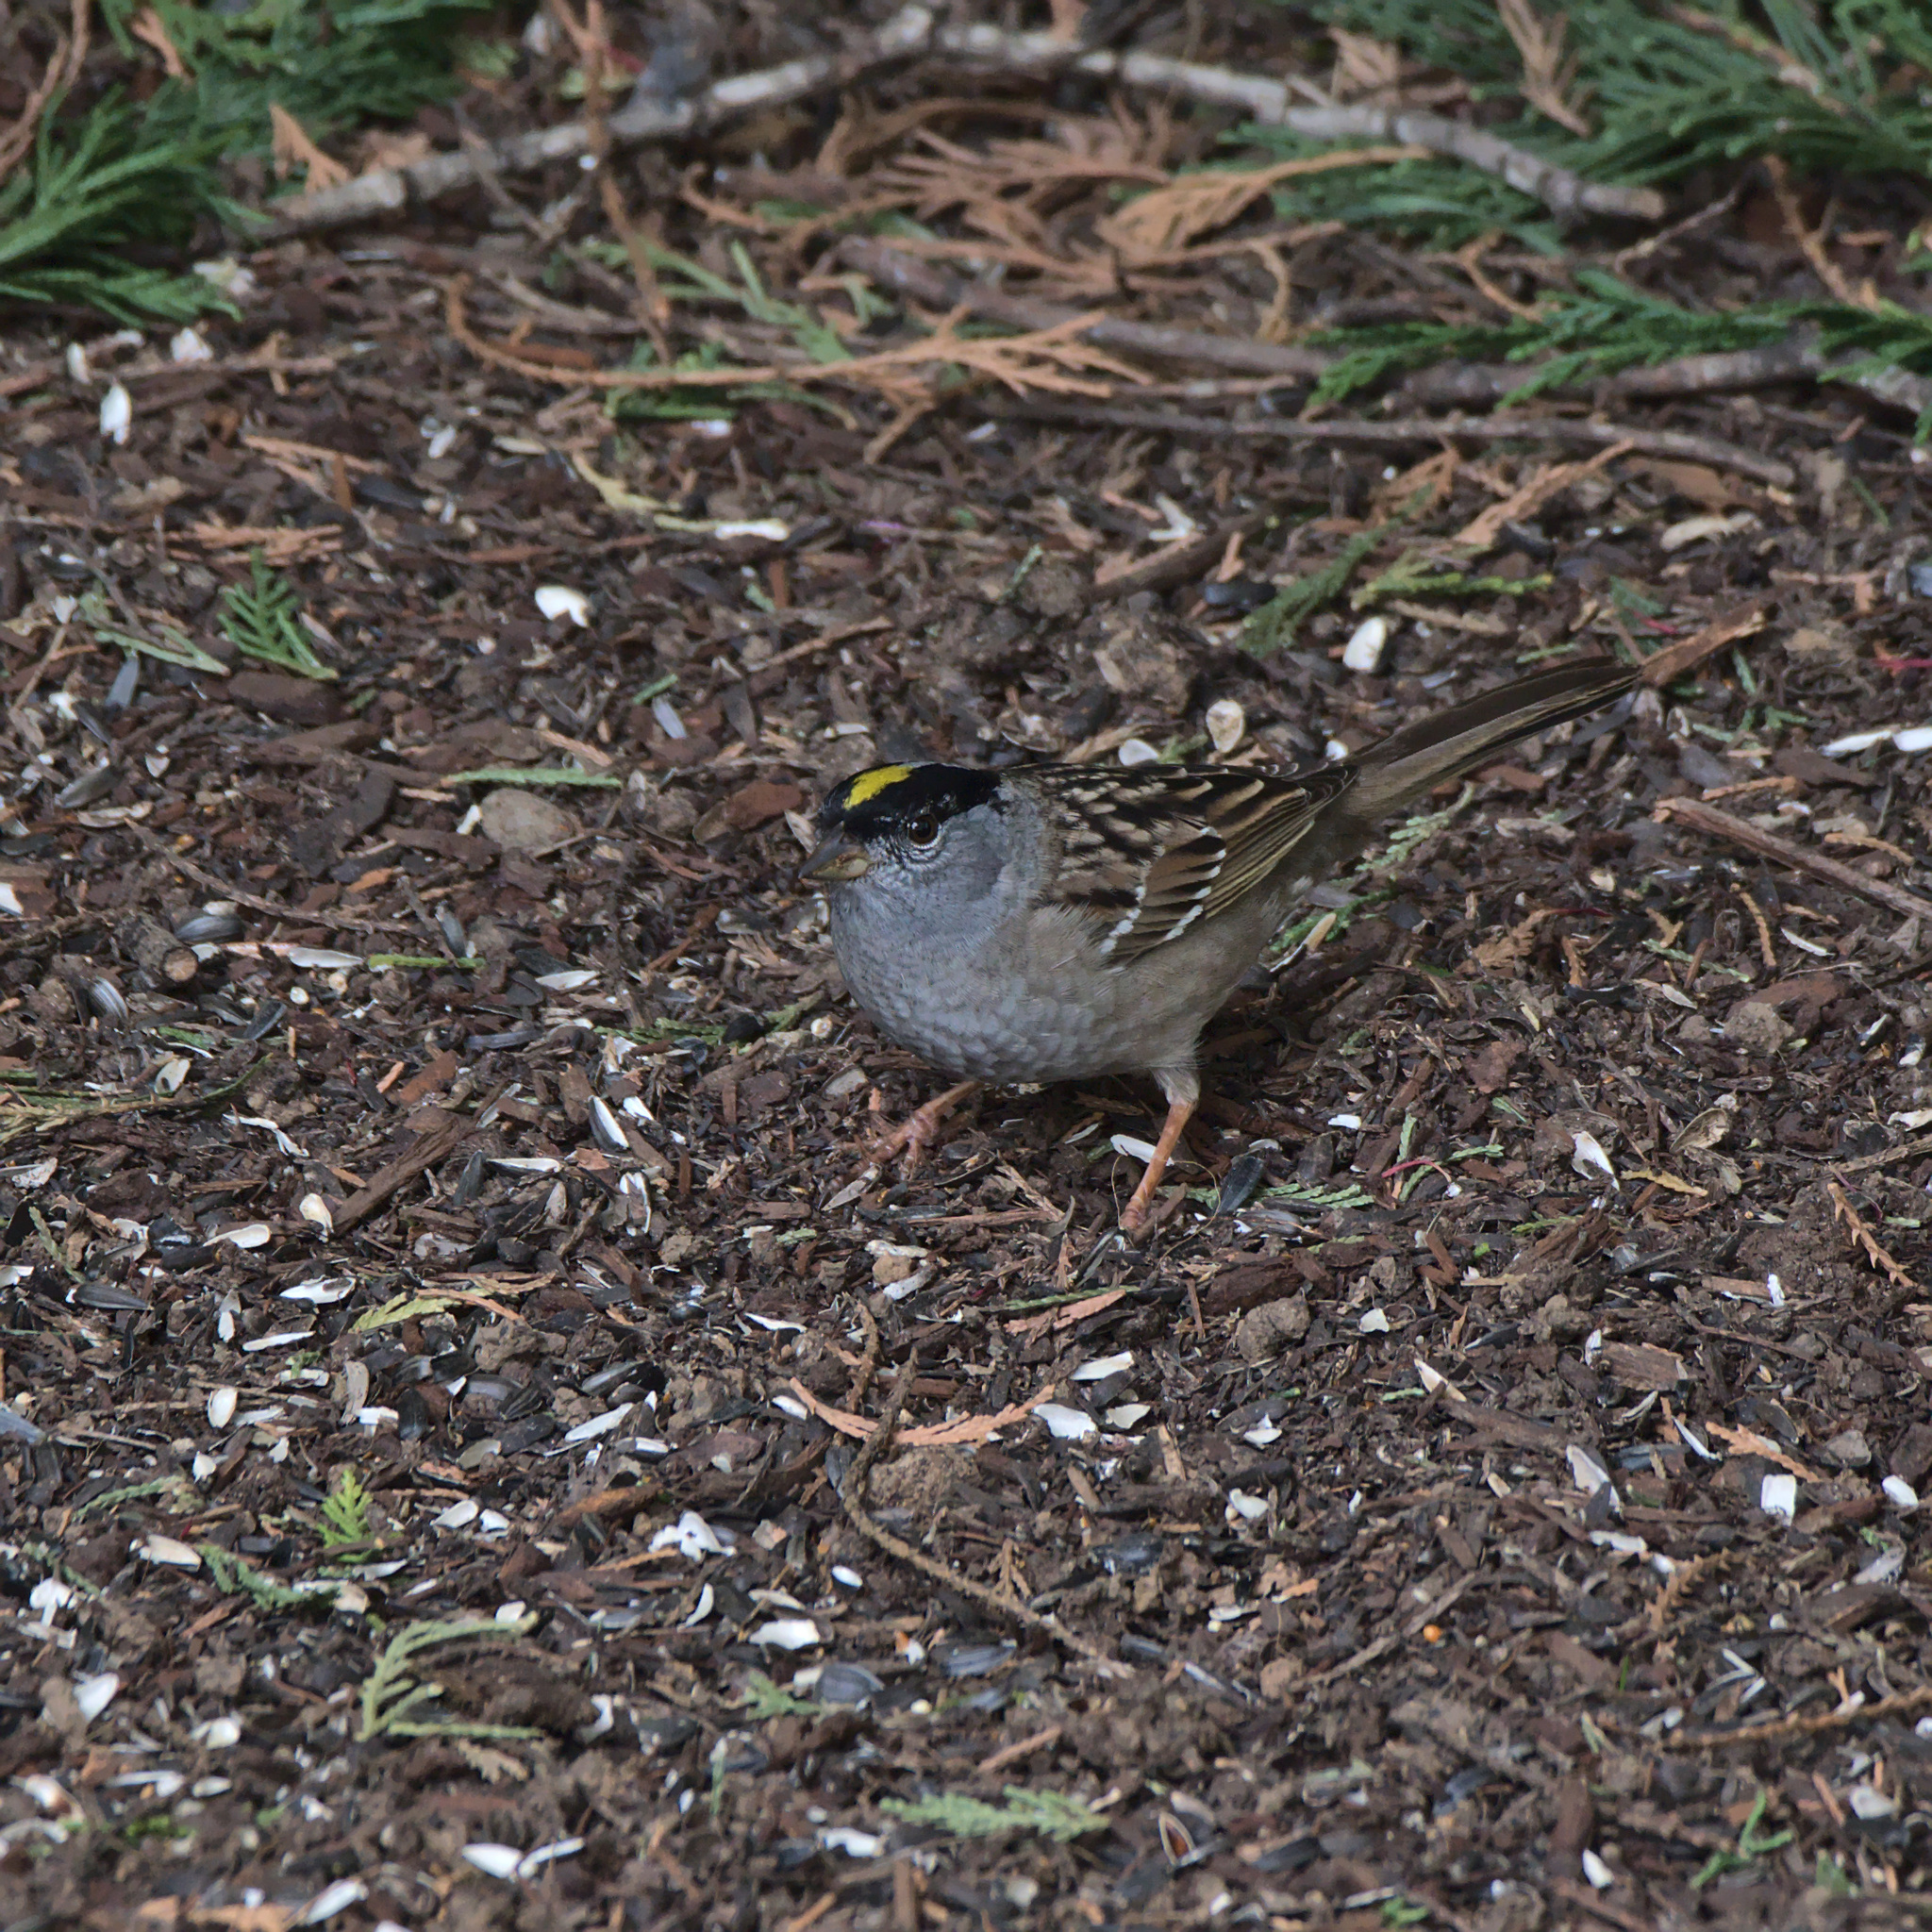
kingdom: Animalia
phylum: Chordata
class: Aves
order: Passeriformes
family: Passerellidae
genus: Zonotrichia
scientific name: Zonotrichia atricapilla
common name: Golden-crowned sparrow
